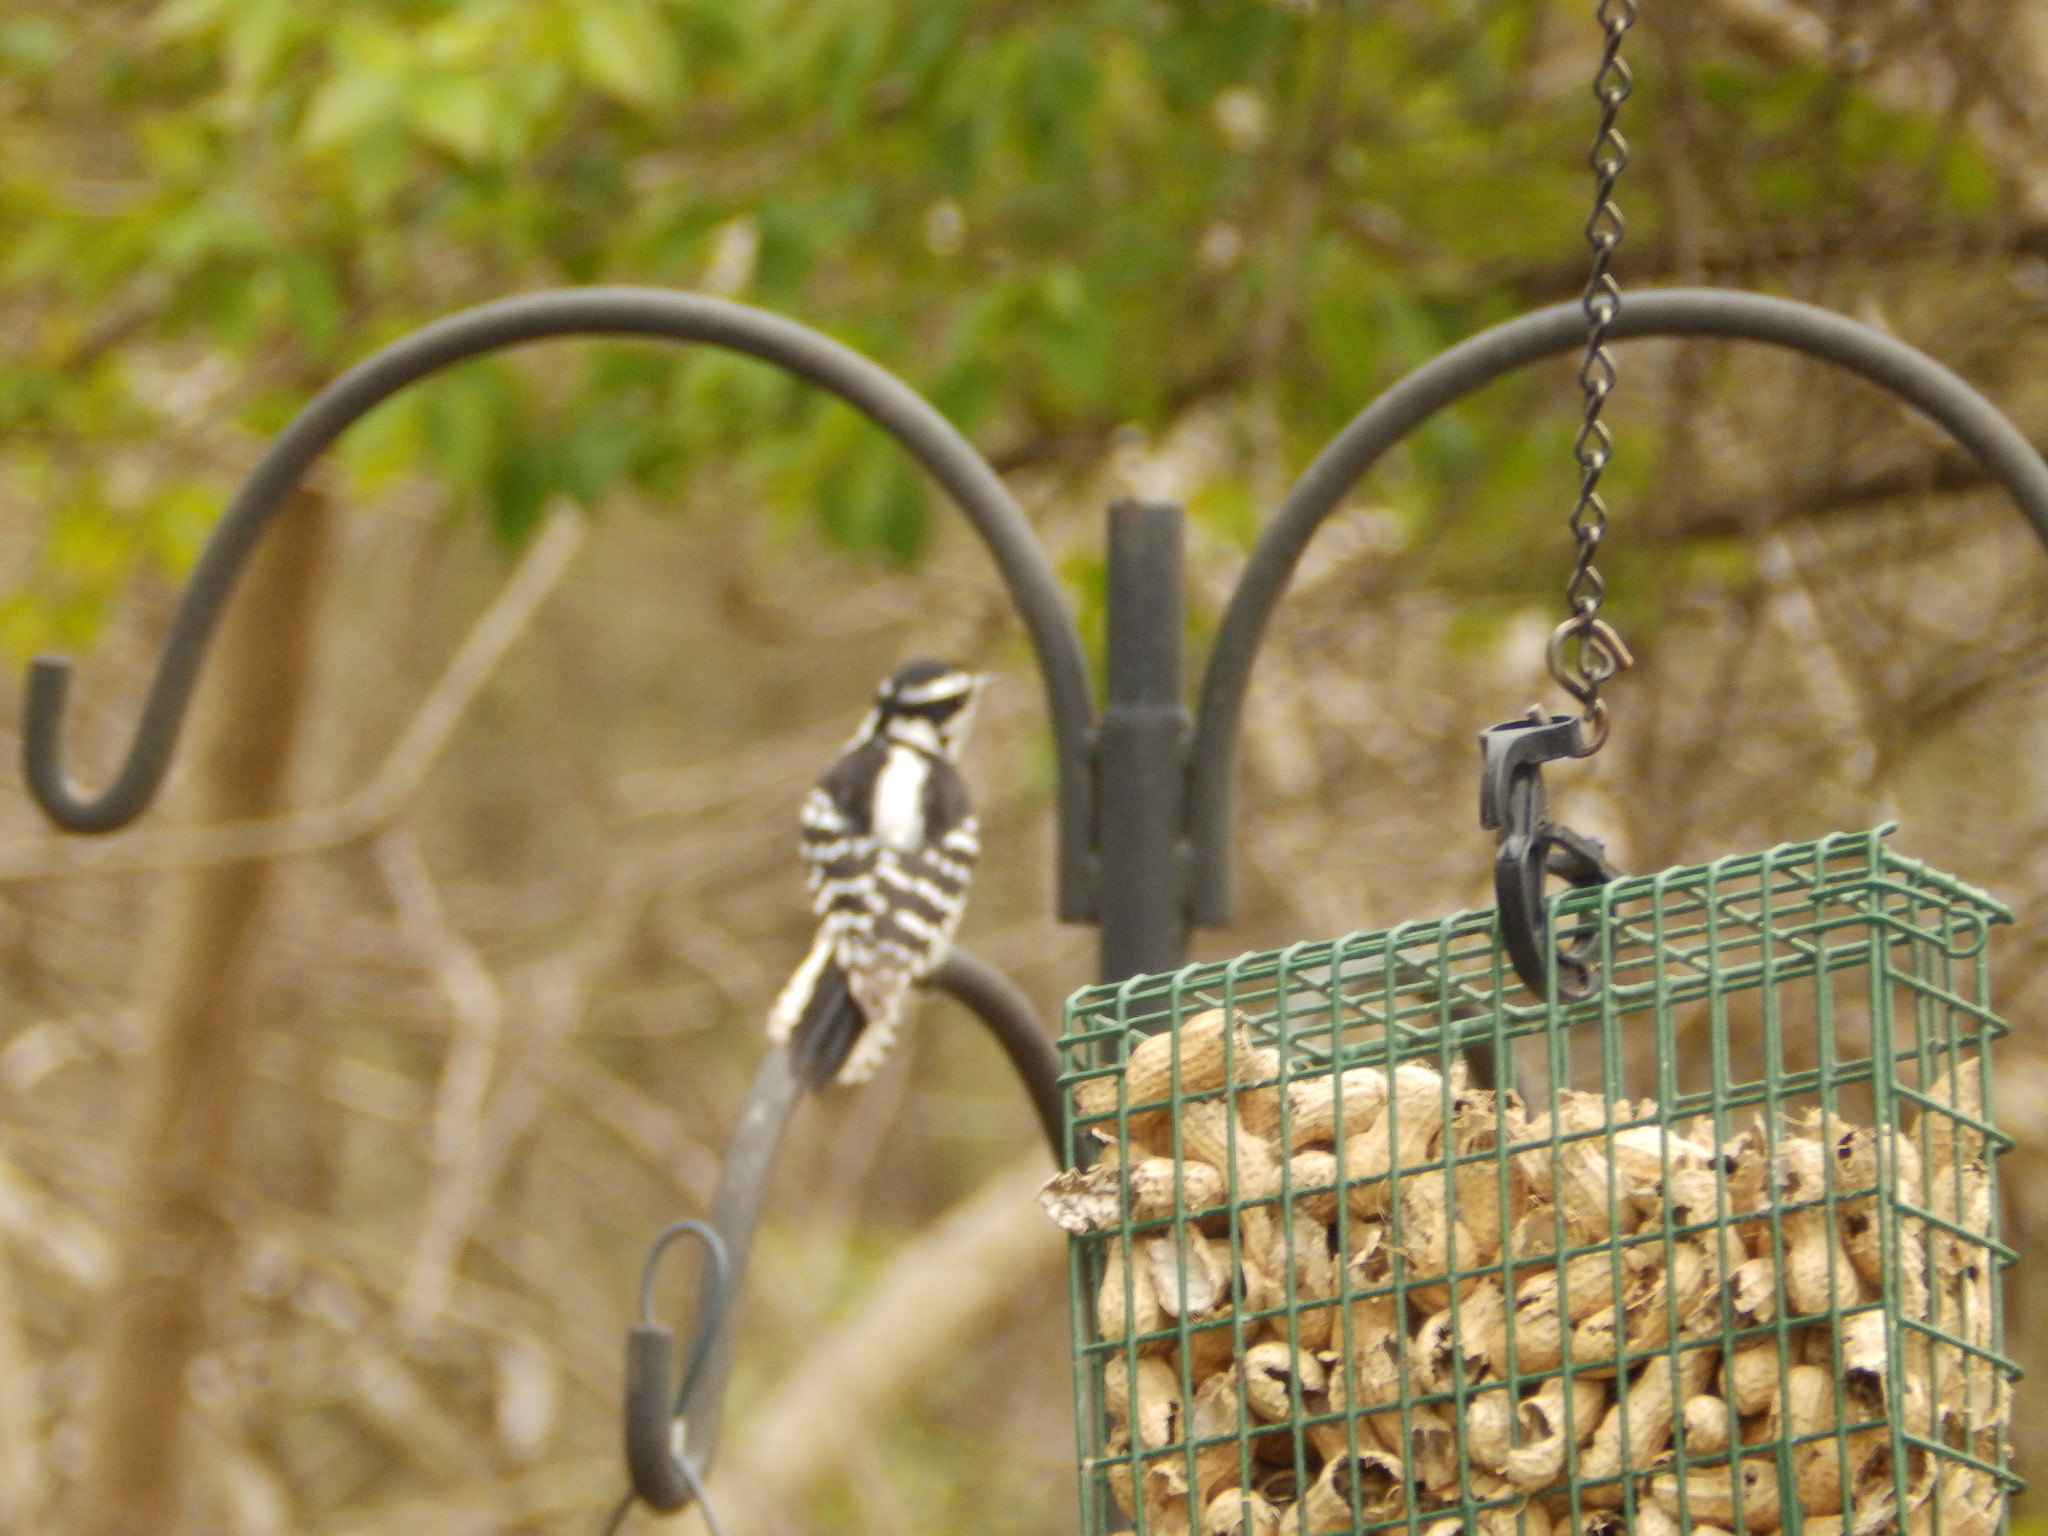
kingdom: Animalia
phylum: Chordata
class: Aves
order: Piciformes
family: Picidae
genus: Dryobates
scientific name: Dryobates pubescens
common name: Downy woodpecker
